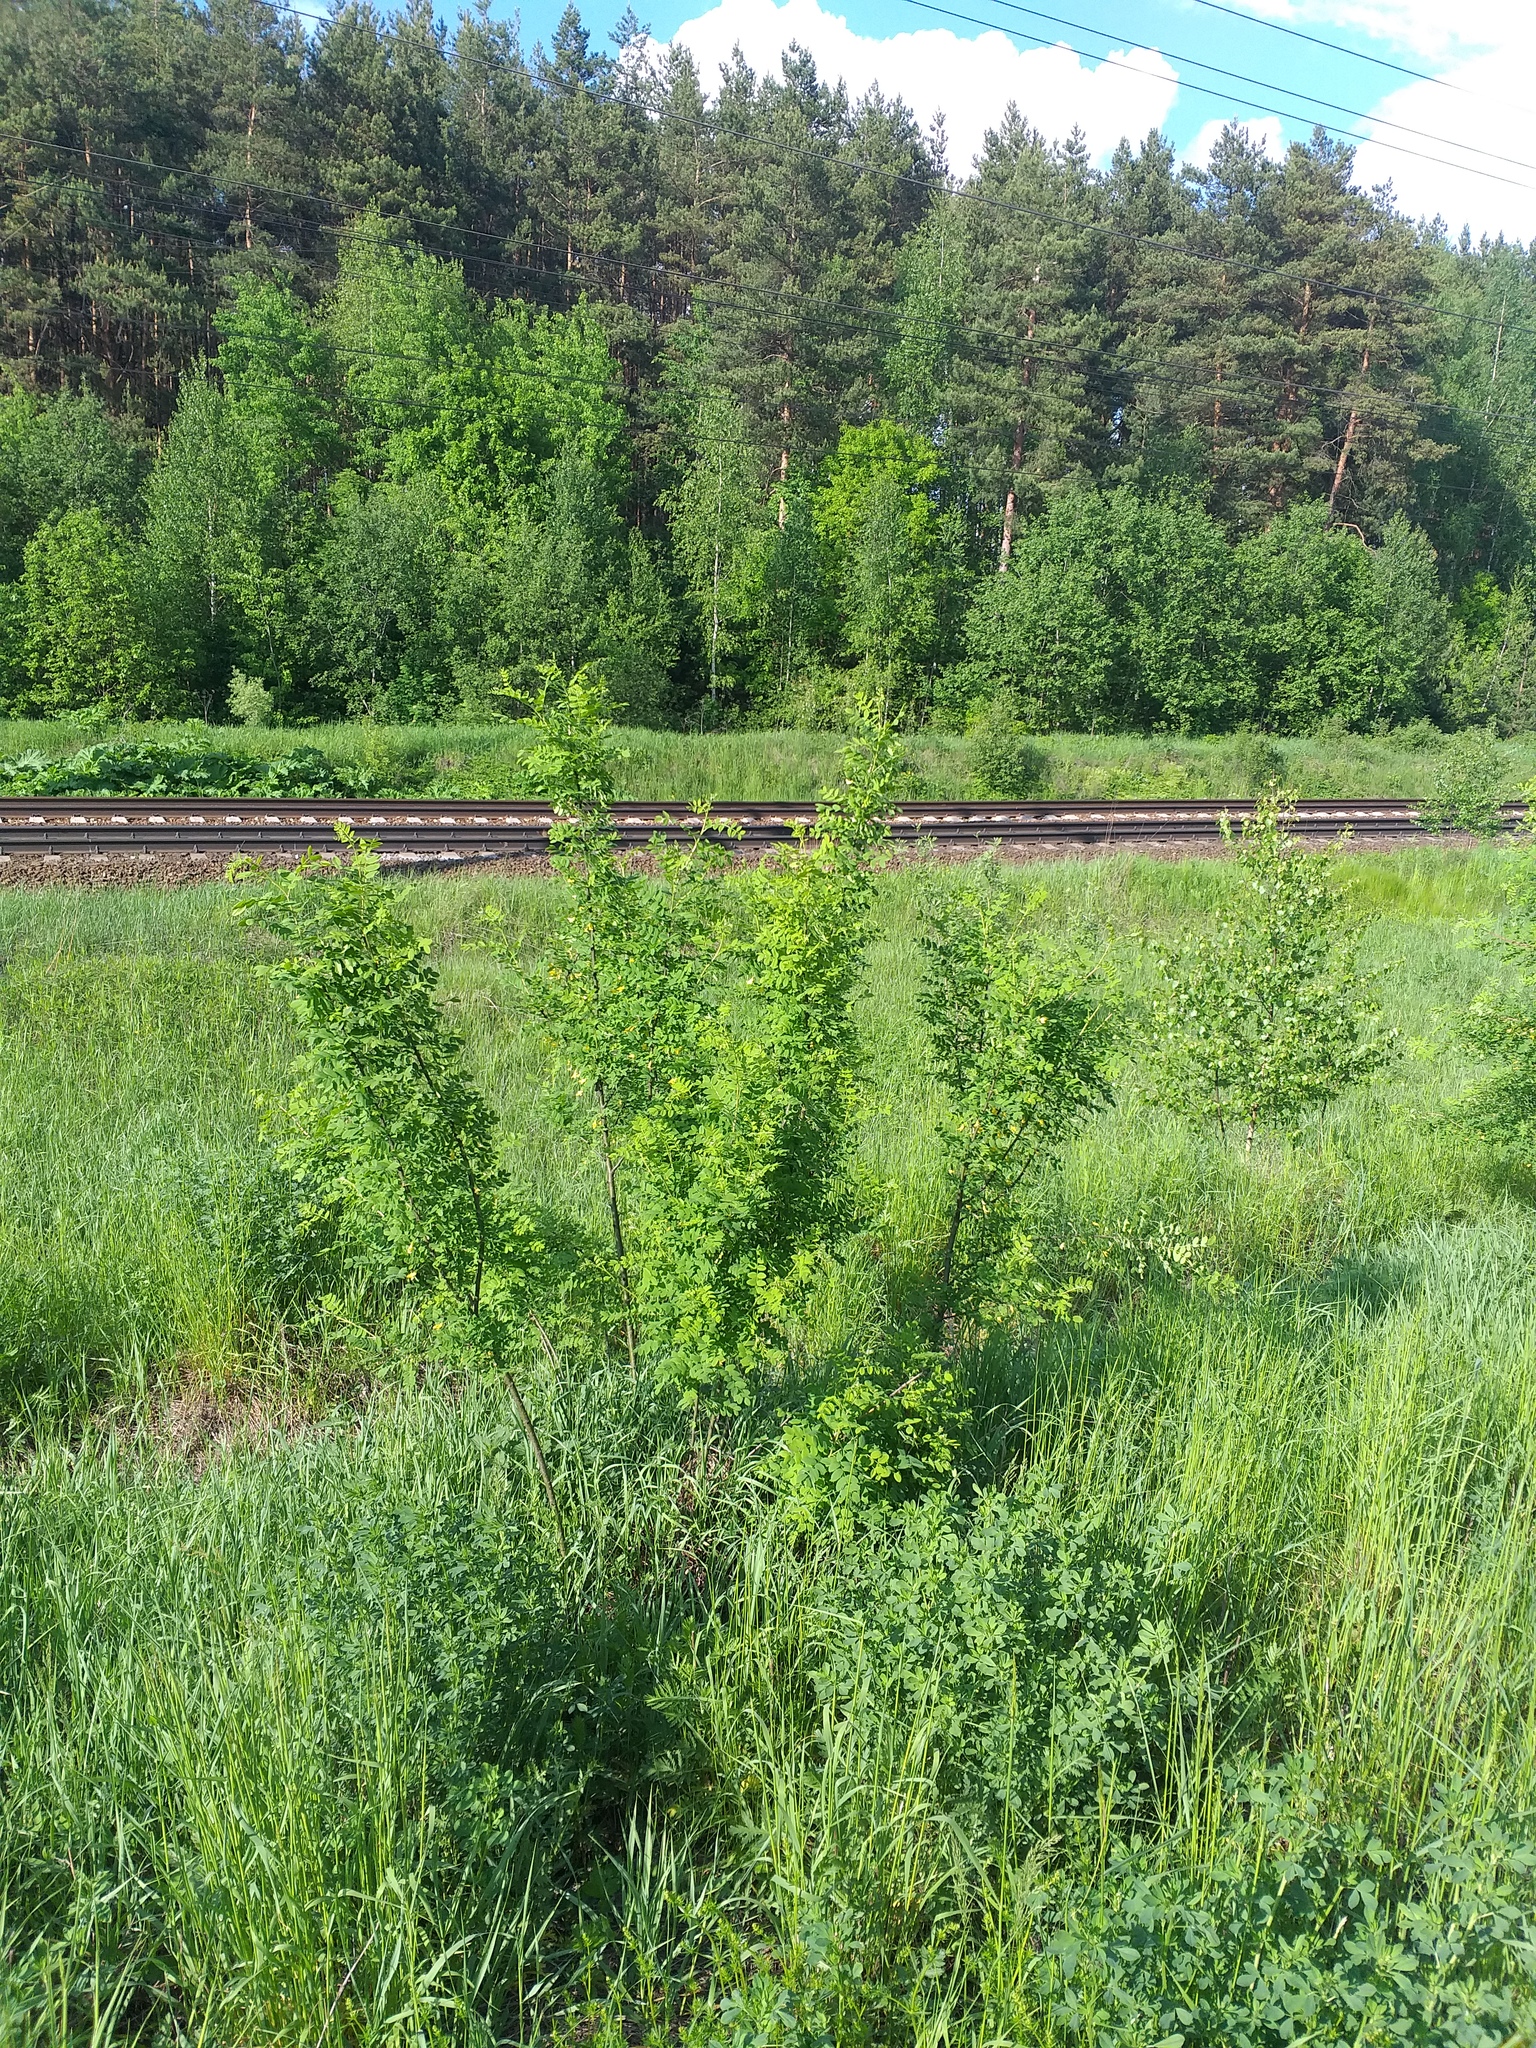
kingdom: Plantae
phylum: Tracheophyta
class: Magnoliopsida
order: Fabales
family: Fabaceae
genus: Caragana
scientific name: Caragana arborescens
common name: Siberian peashrub
